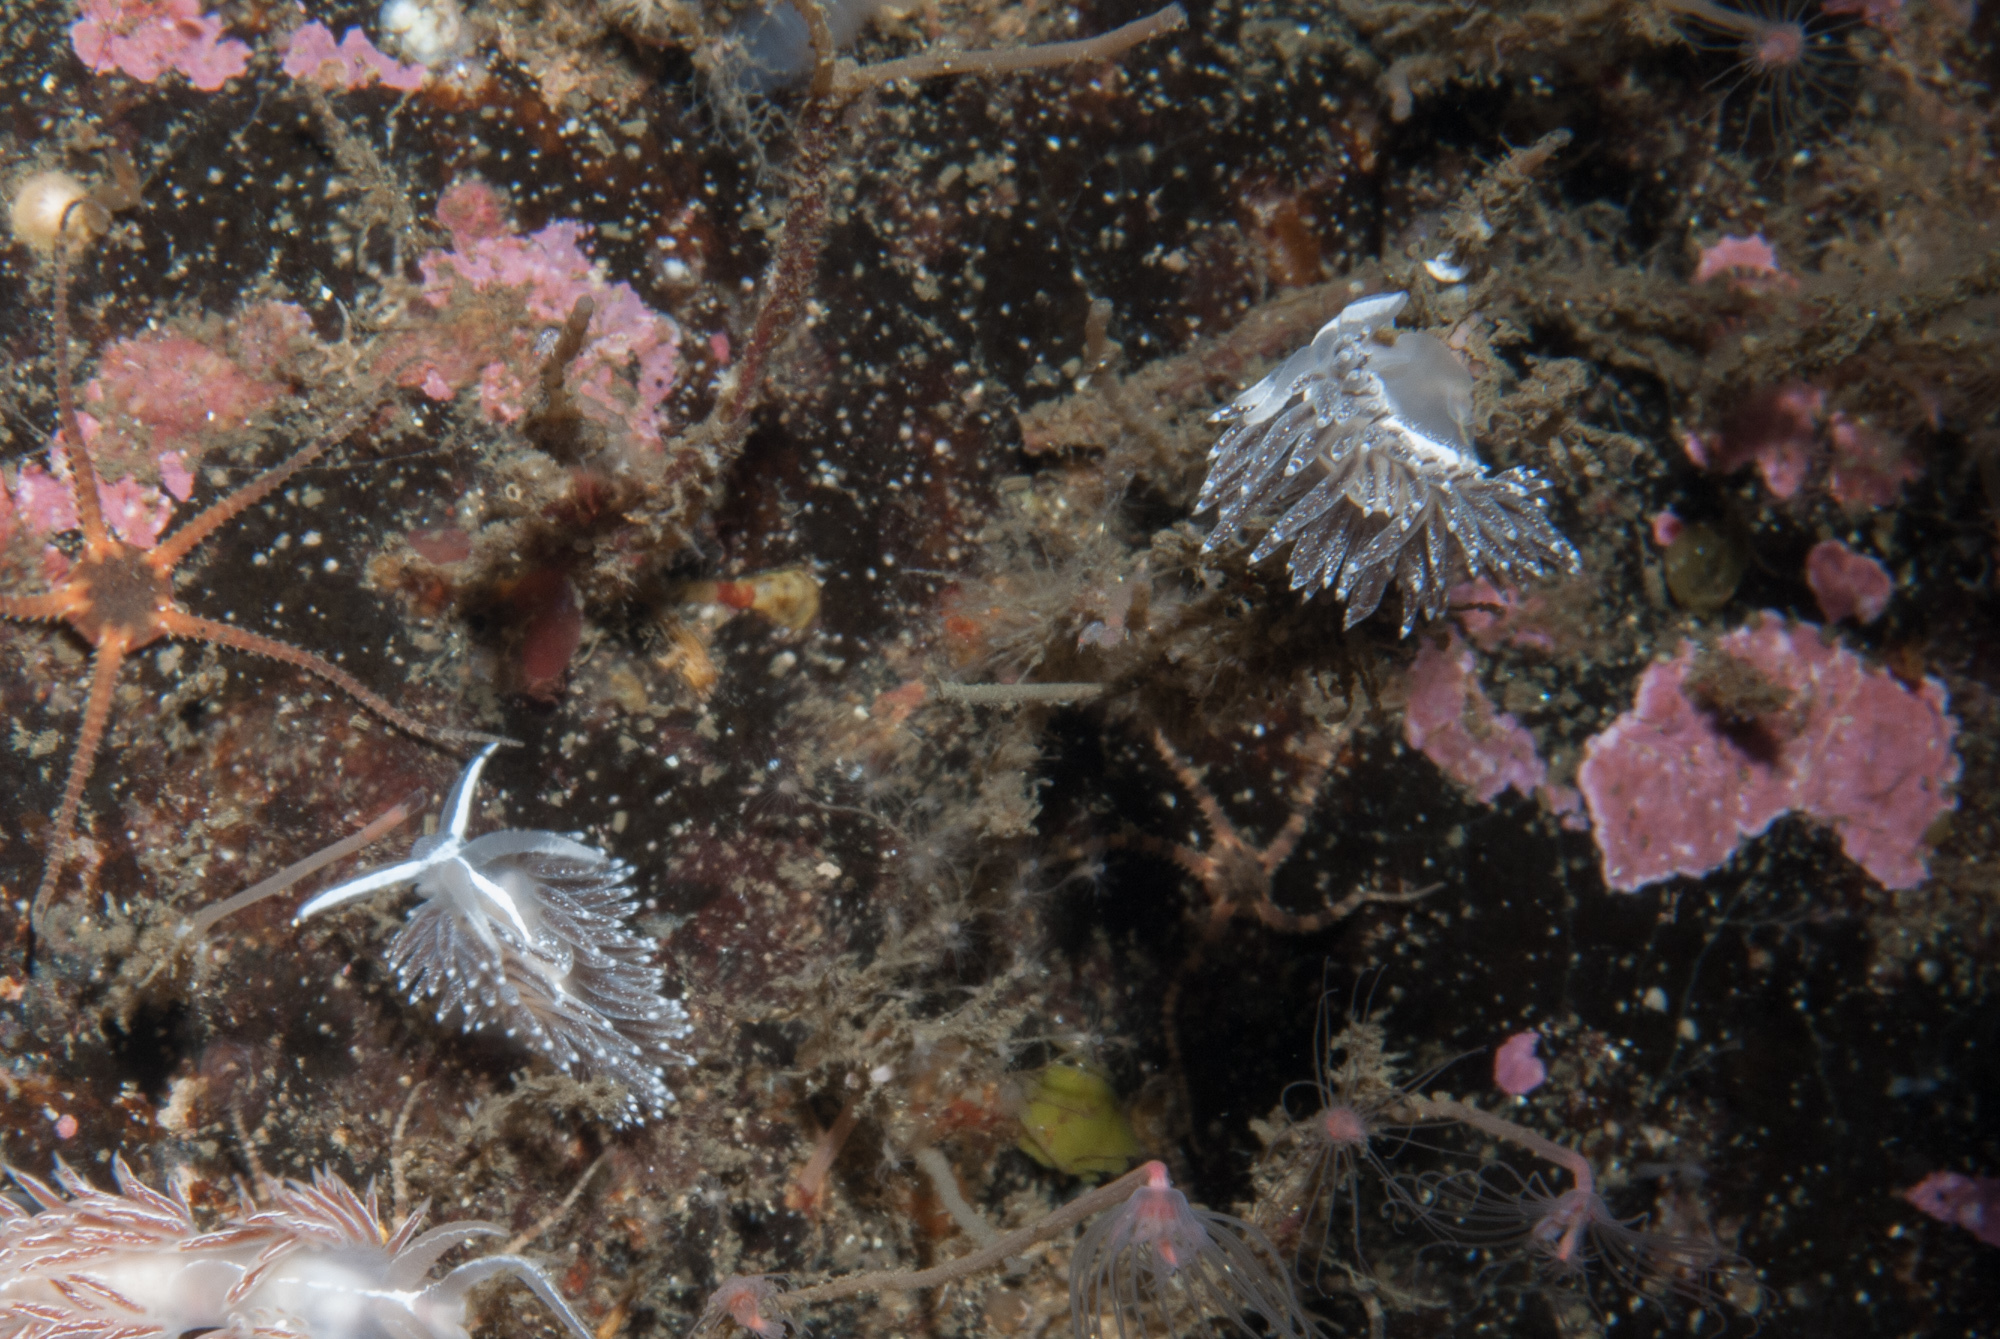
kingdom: Animalia
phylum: Mollusca
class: Gastropoda
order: Nudibranchia
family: Coryphellidae
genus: Coryphella
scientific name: Coryphella orjani
